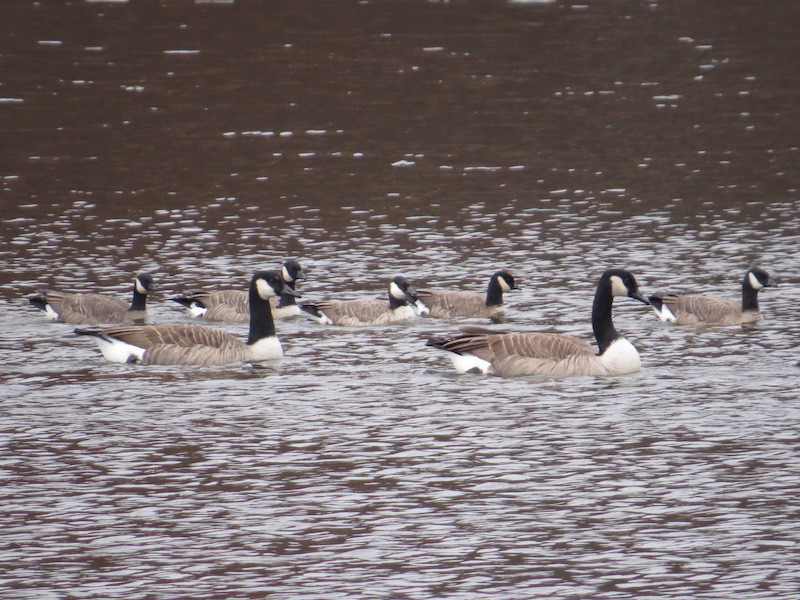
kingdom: Animalia
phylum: Chordata
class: Aves
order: Anseriformes
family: Anatidae
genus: Branta
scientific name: Branta hutchinsii
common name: Cackling goose
